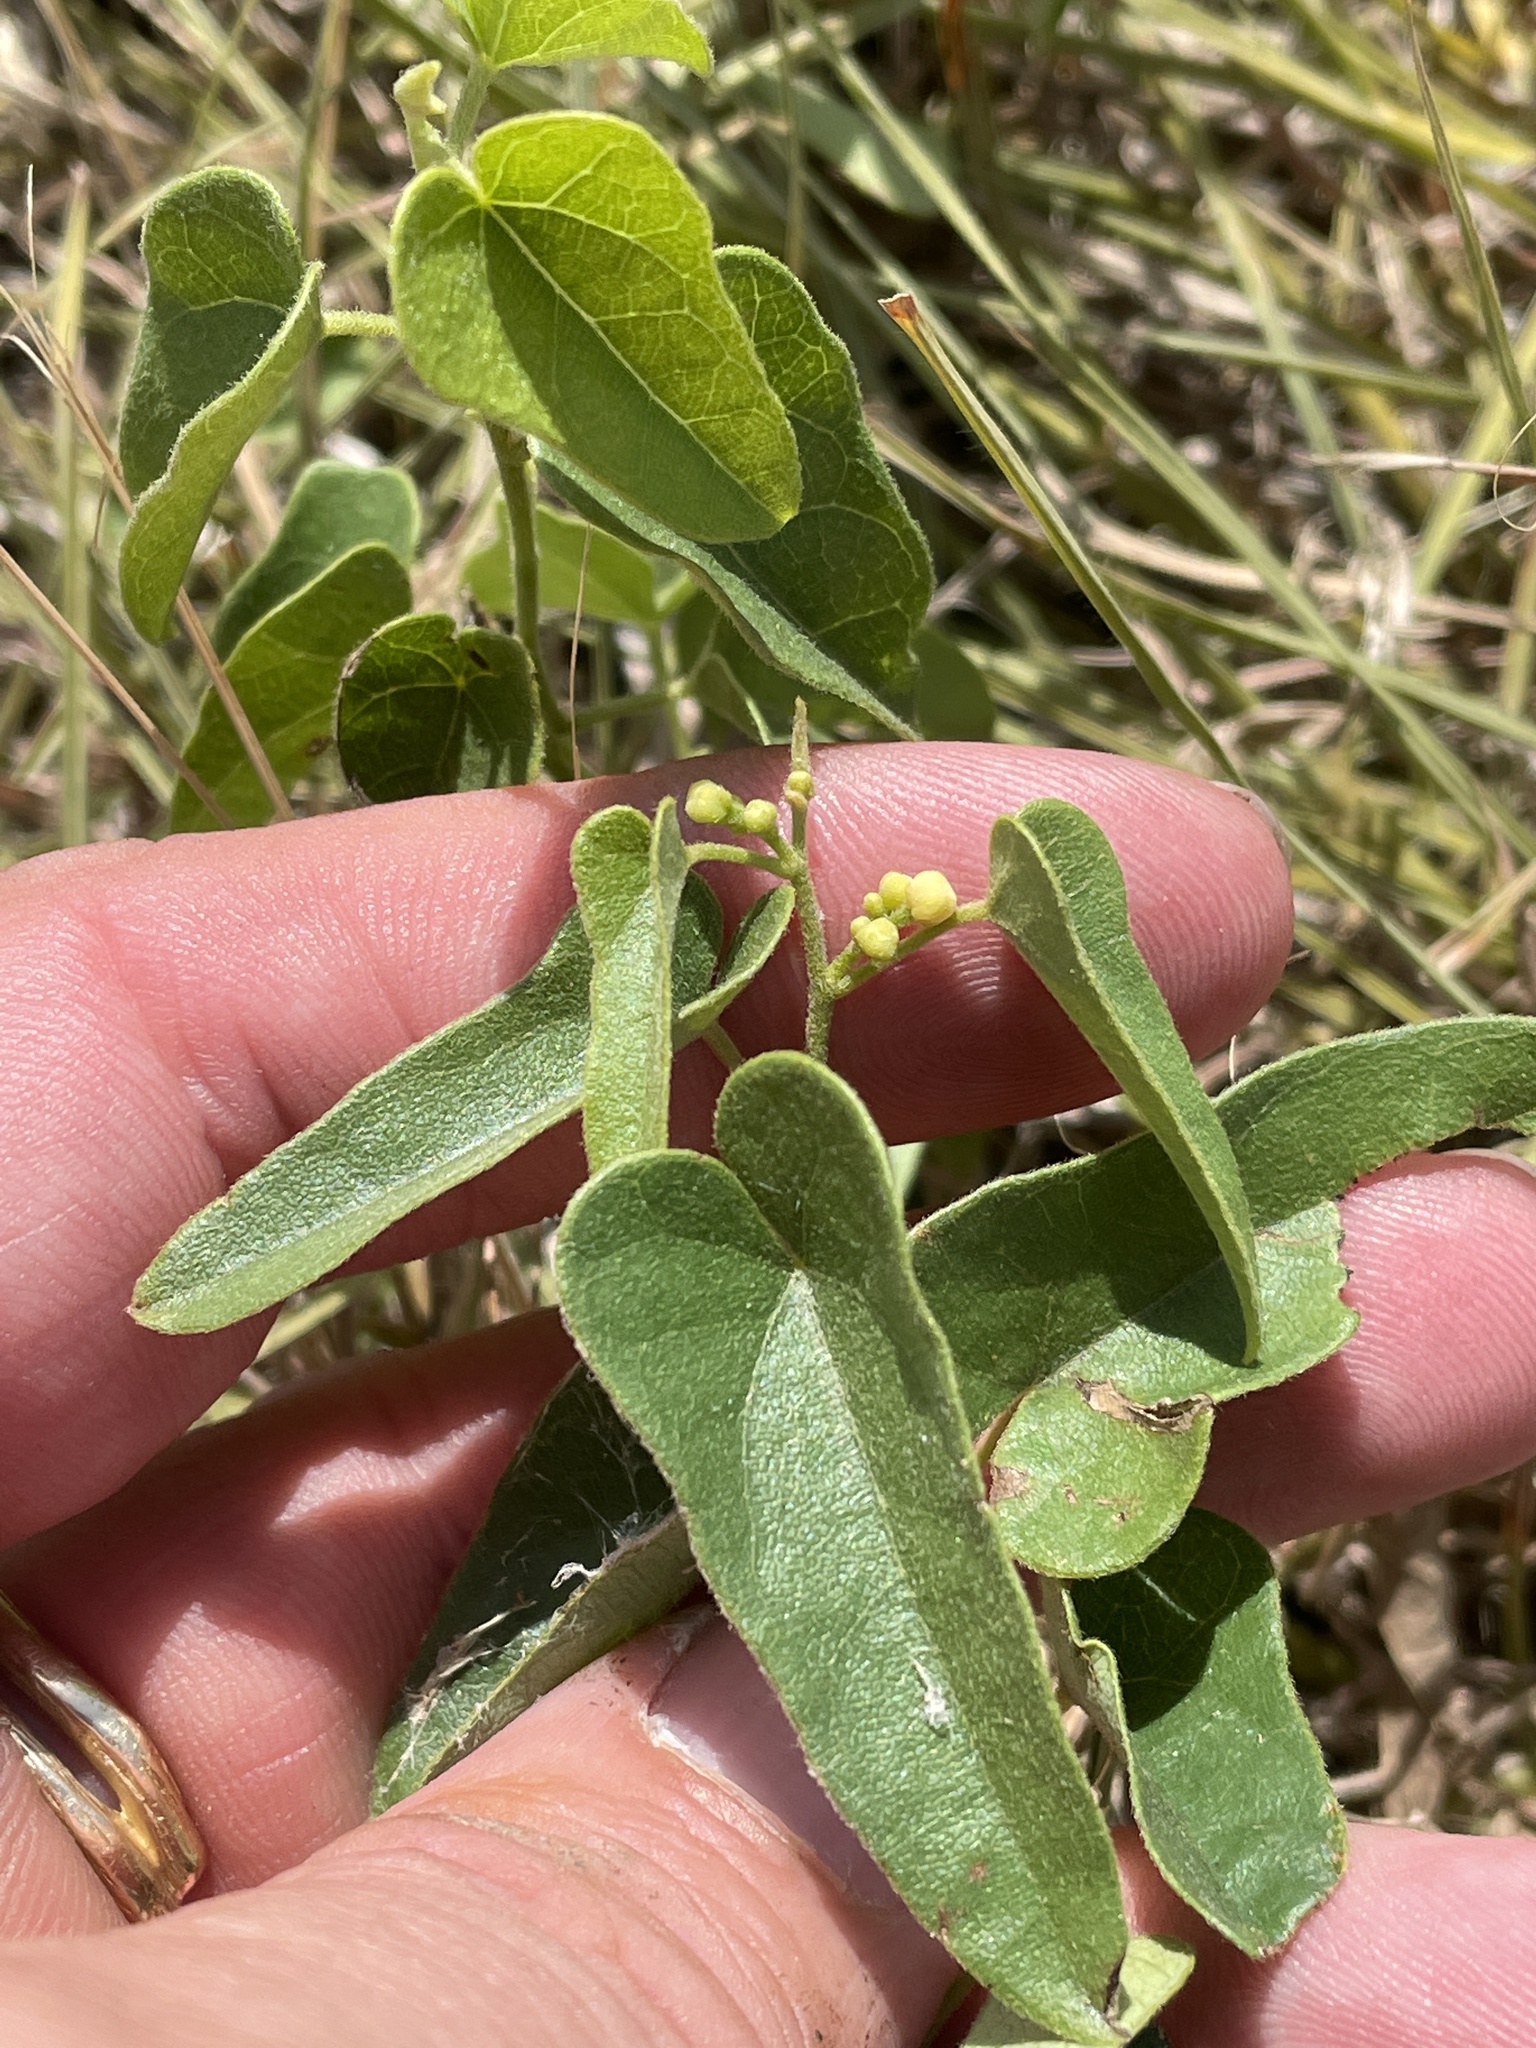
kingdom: Plantae
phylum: Tracheophyta
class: Magnoliopsida
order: Ranunculales
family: Menispermaceae
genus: Cocculus
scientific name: Cocculus carolinus
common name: Carolina moonseed
